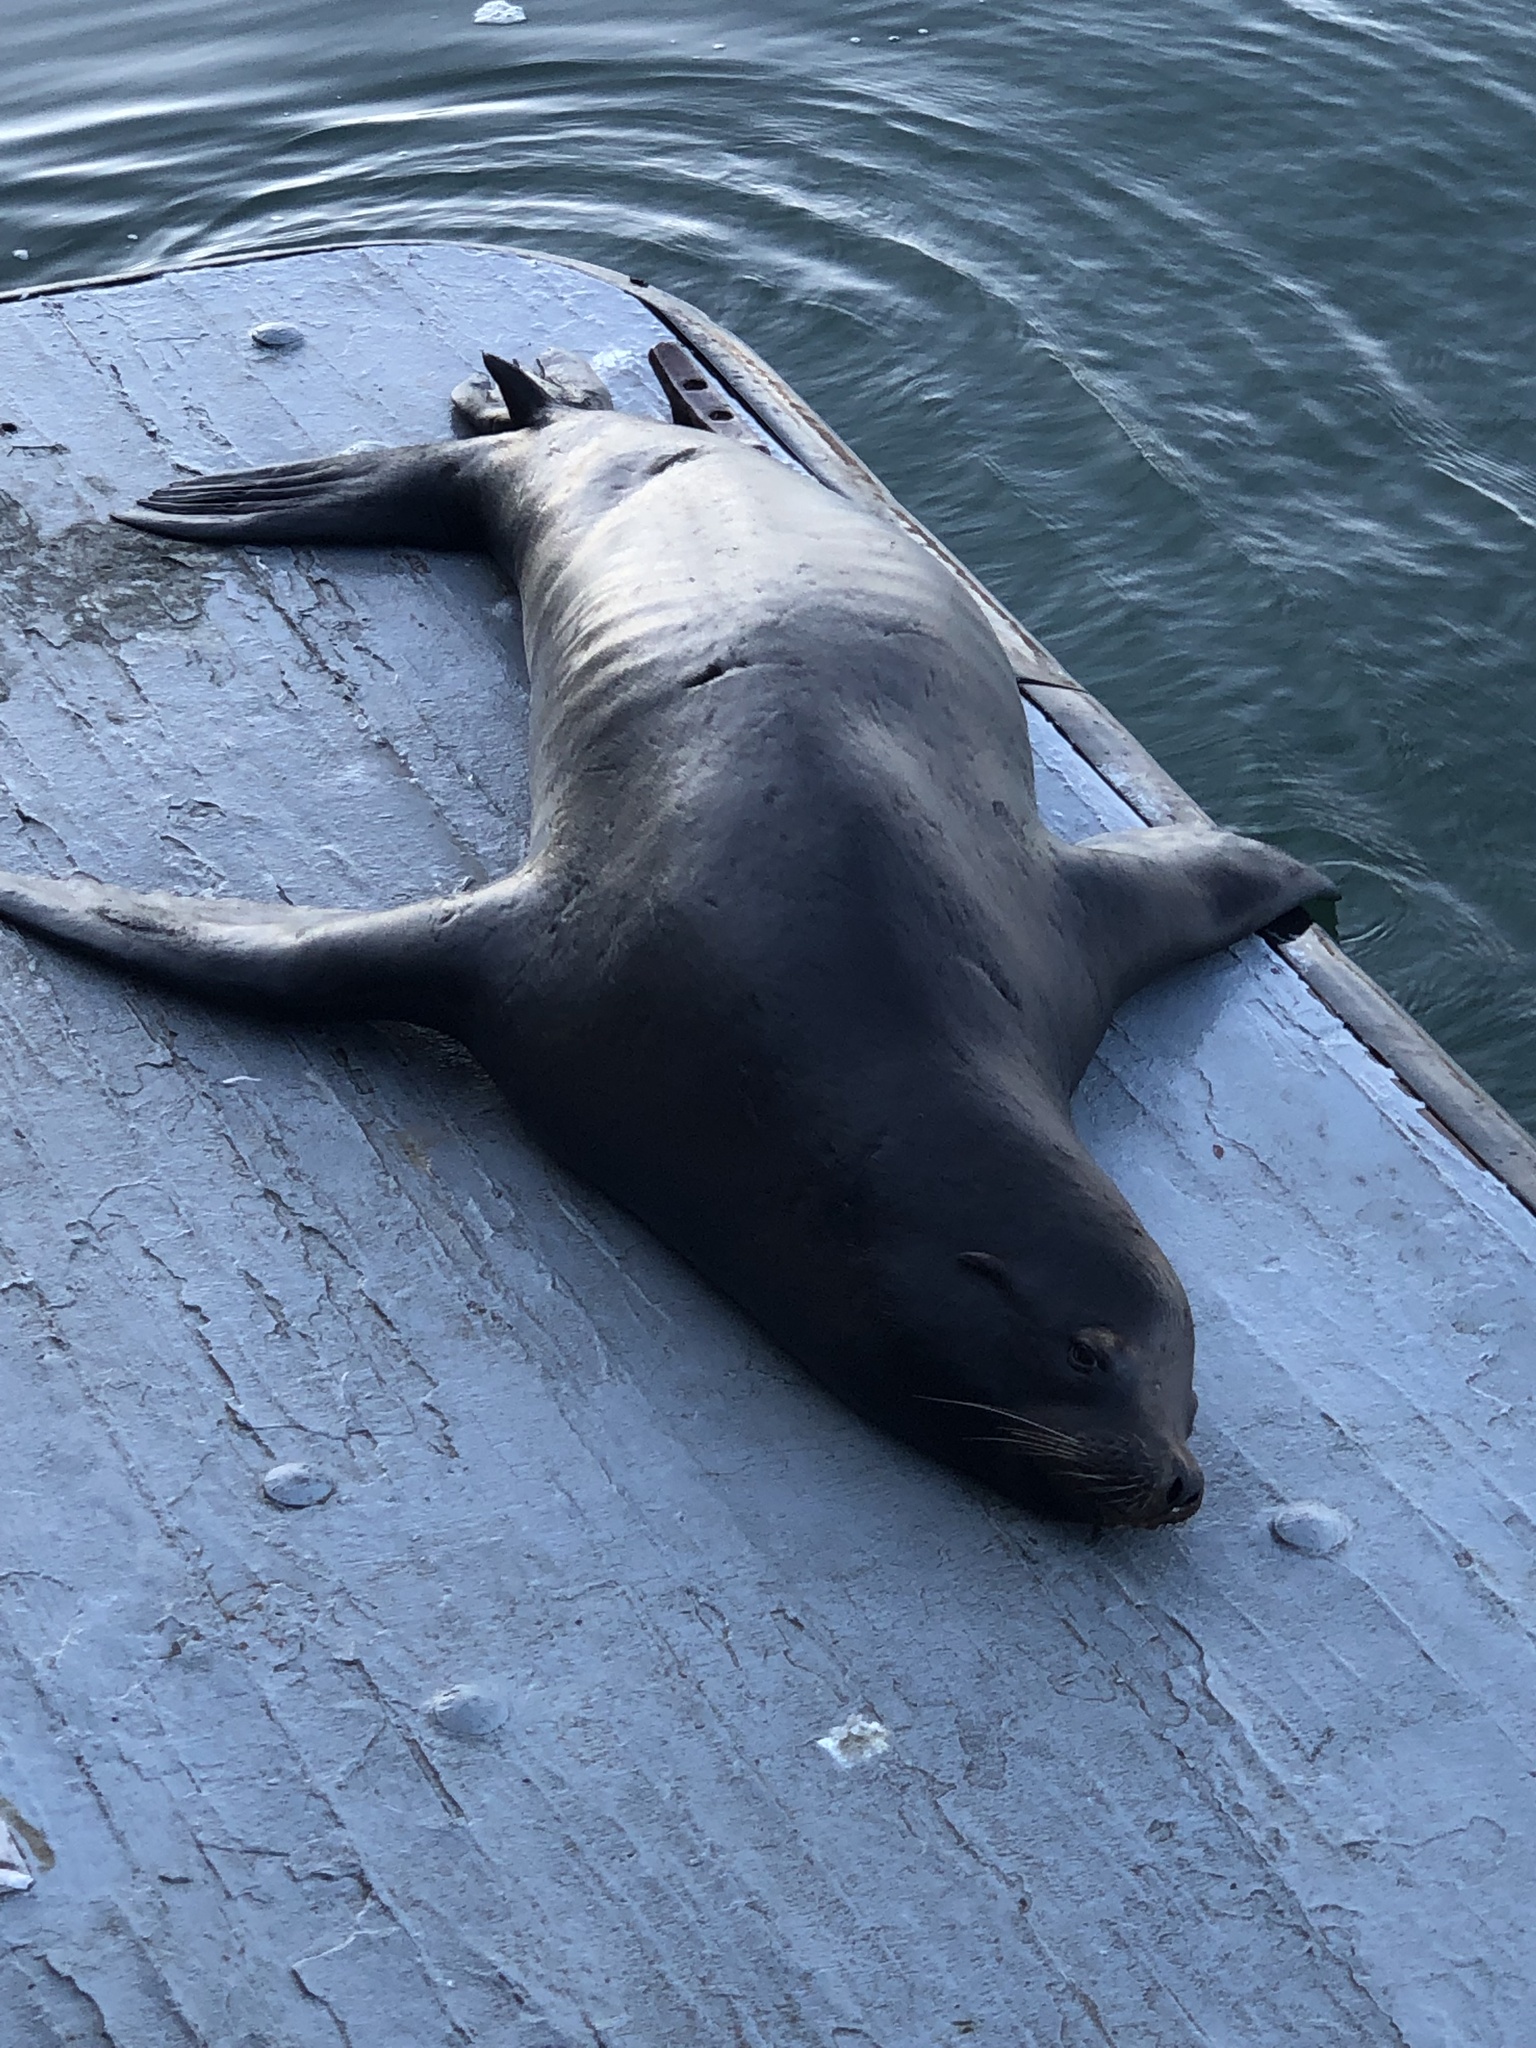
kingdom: Animalia
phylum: Chordata
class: Mammalia
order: Carnivora
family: Otariidae
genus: Zalophus
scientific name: Zalophus californianus
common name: California sea lion
